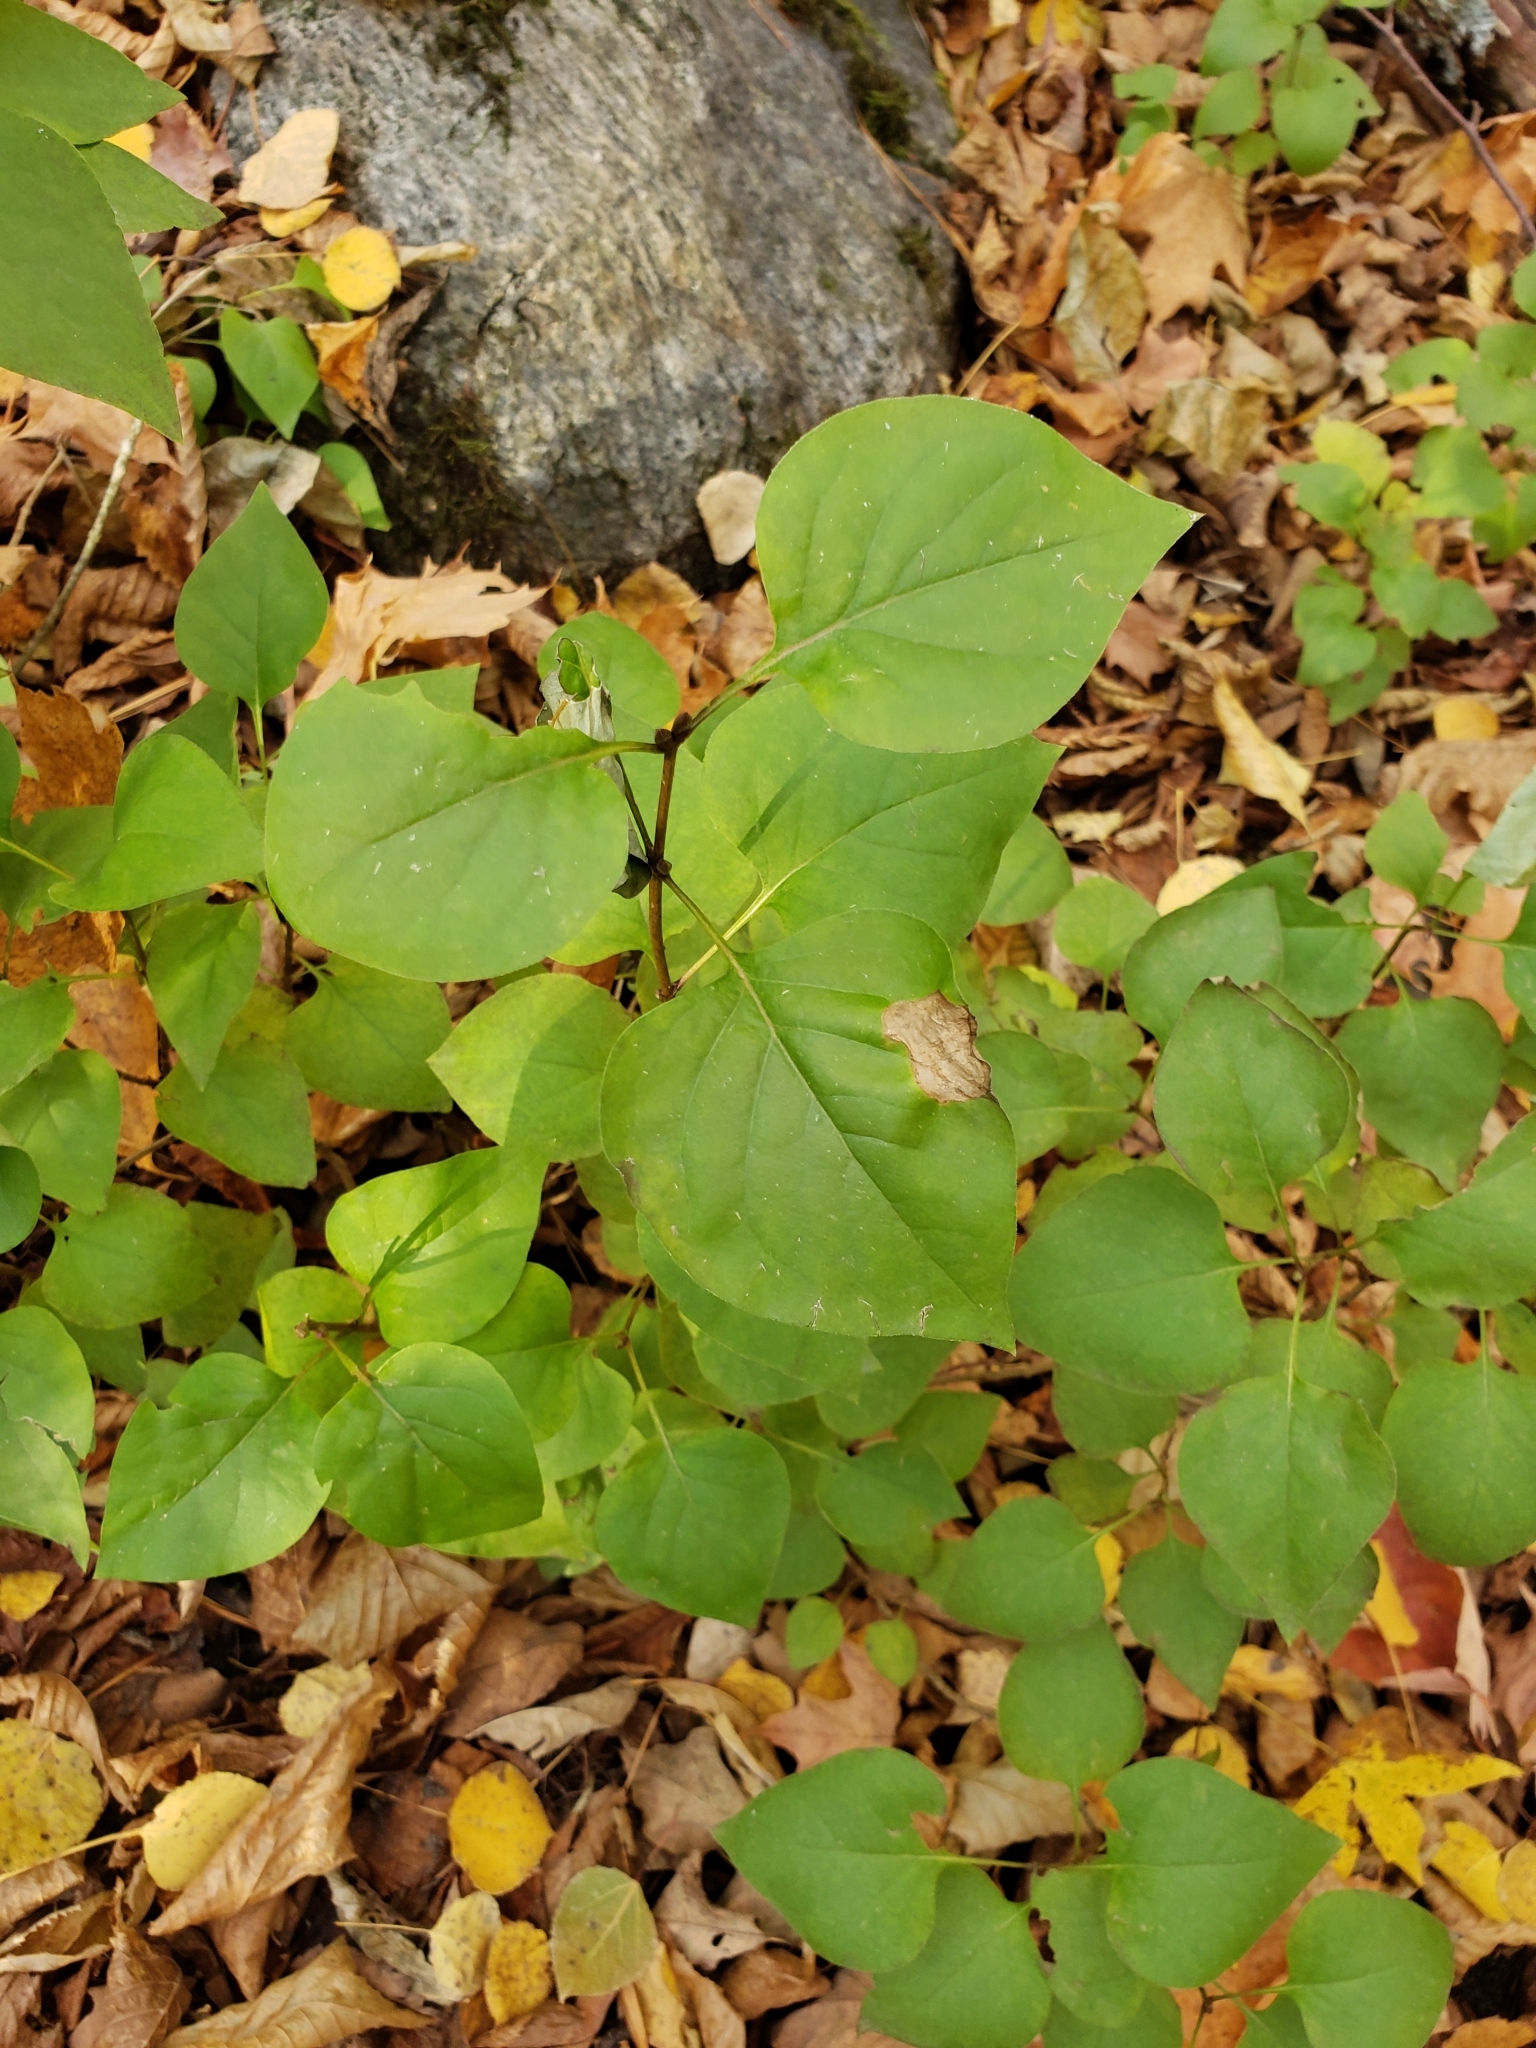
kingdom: Plantae
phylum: Tracheophyta
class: Magnoliopsida
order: Lamiales
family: Oleaceae
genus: Syringa
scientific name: Syringa vulgaris
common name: Common lilac
